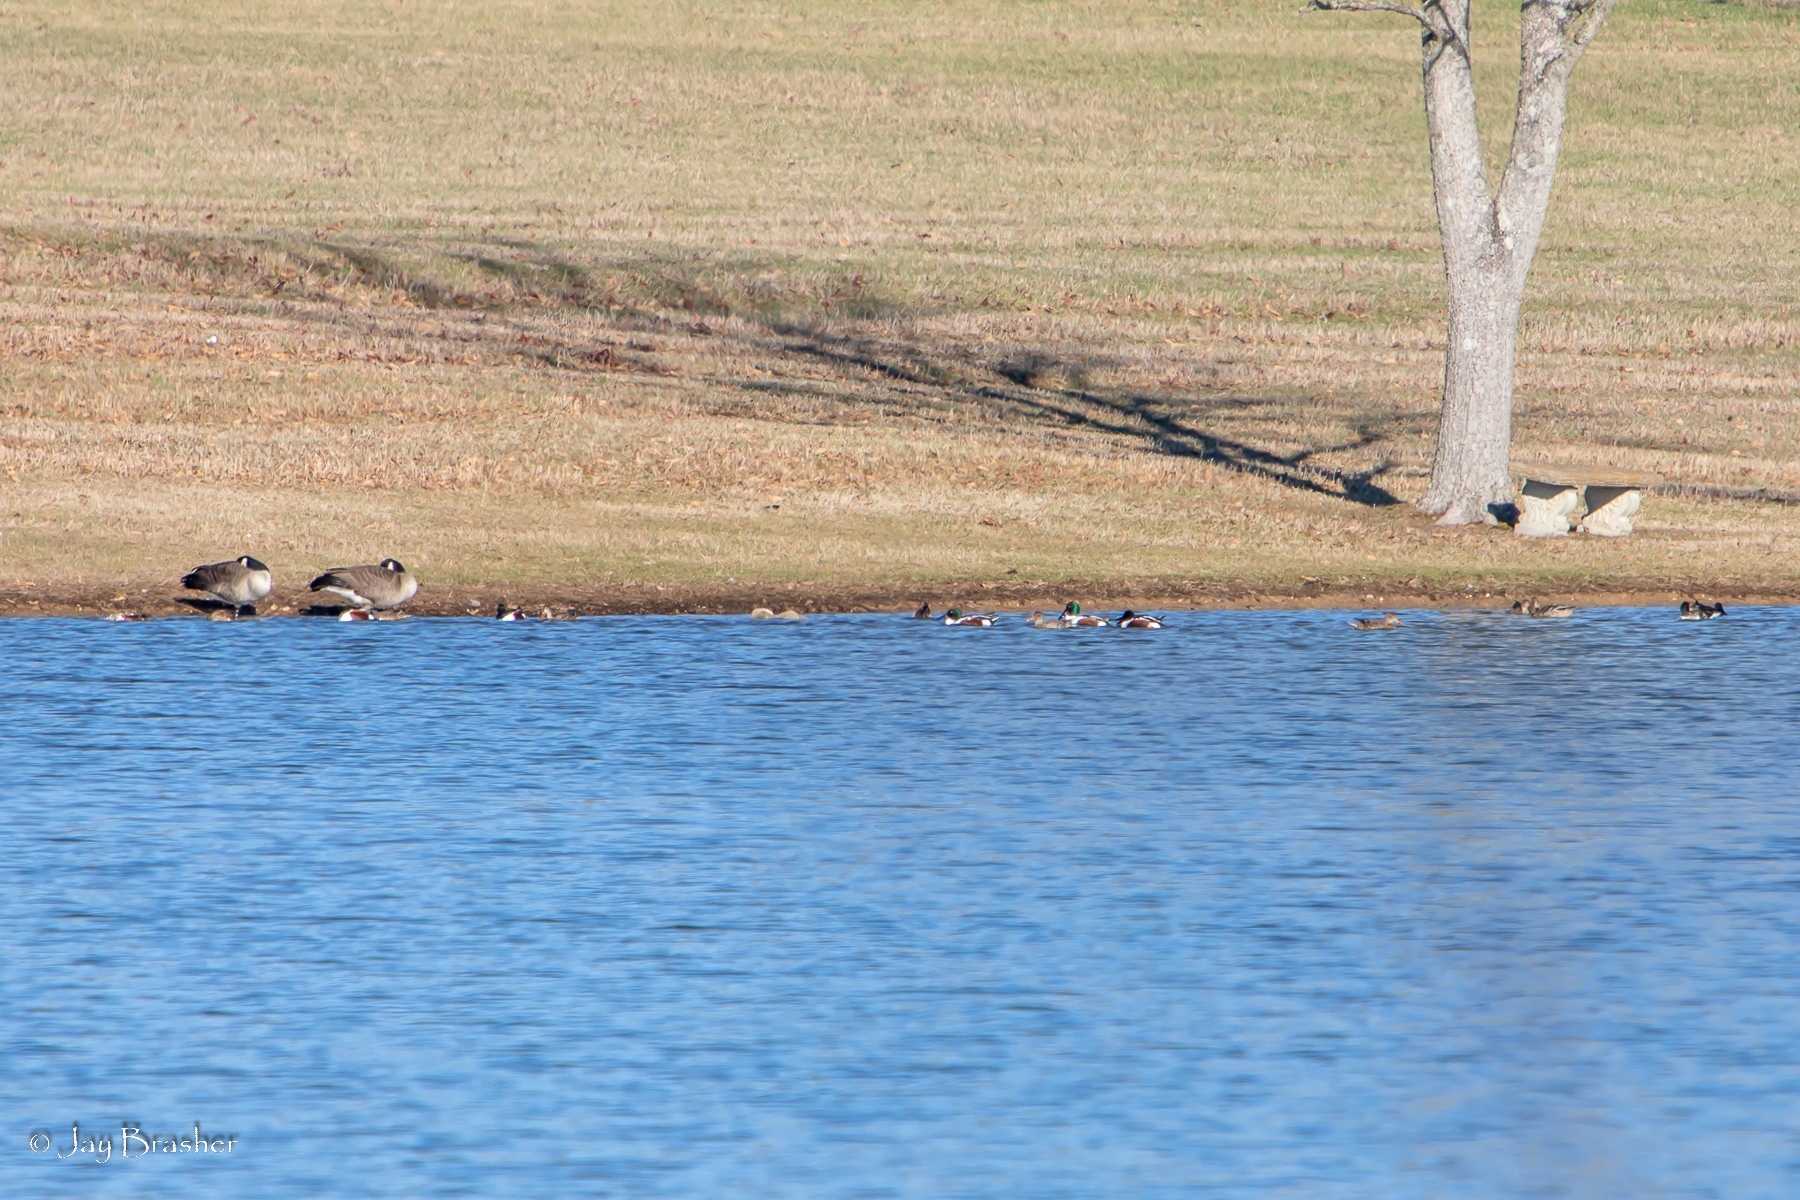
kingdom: Animalia
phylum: Chordata
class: Aves
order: Anseriformes
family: Anatidae
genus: Spatula
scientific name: Spatula clypeata
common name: Northern shoveler
